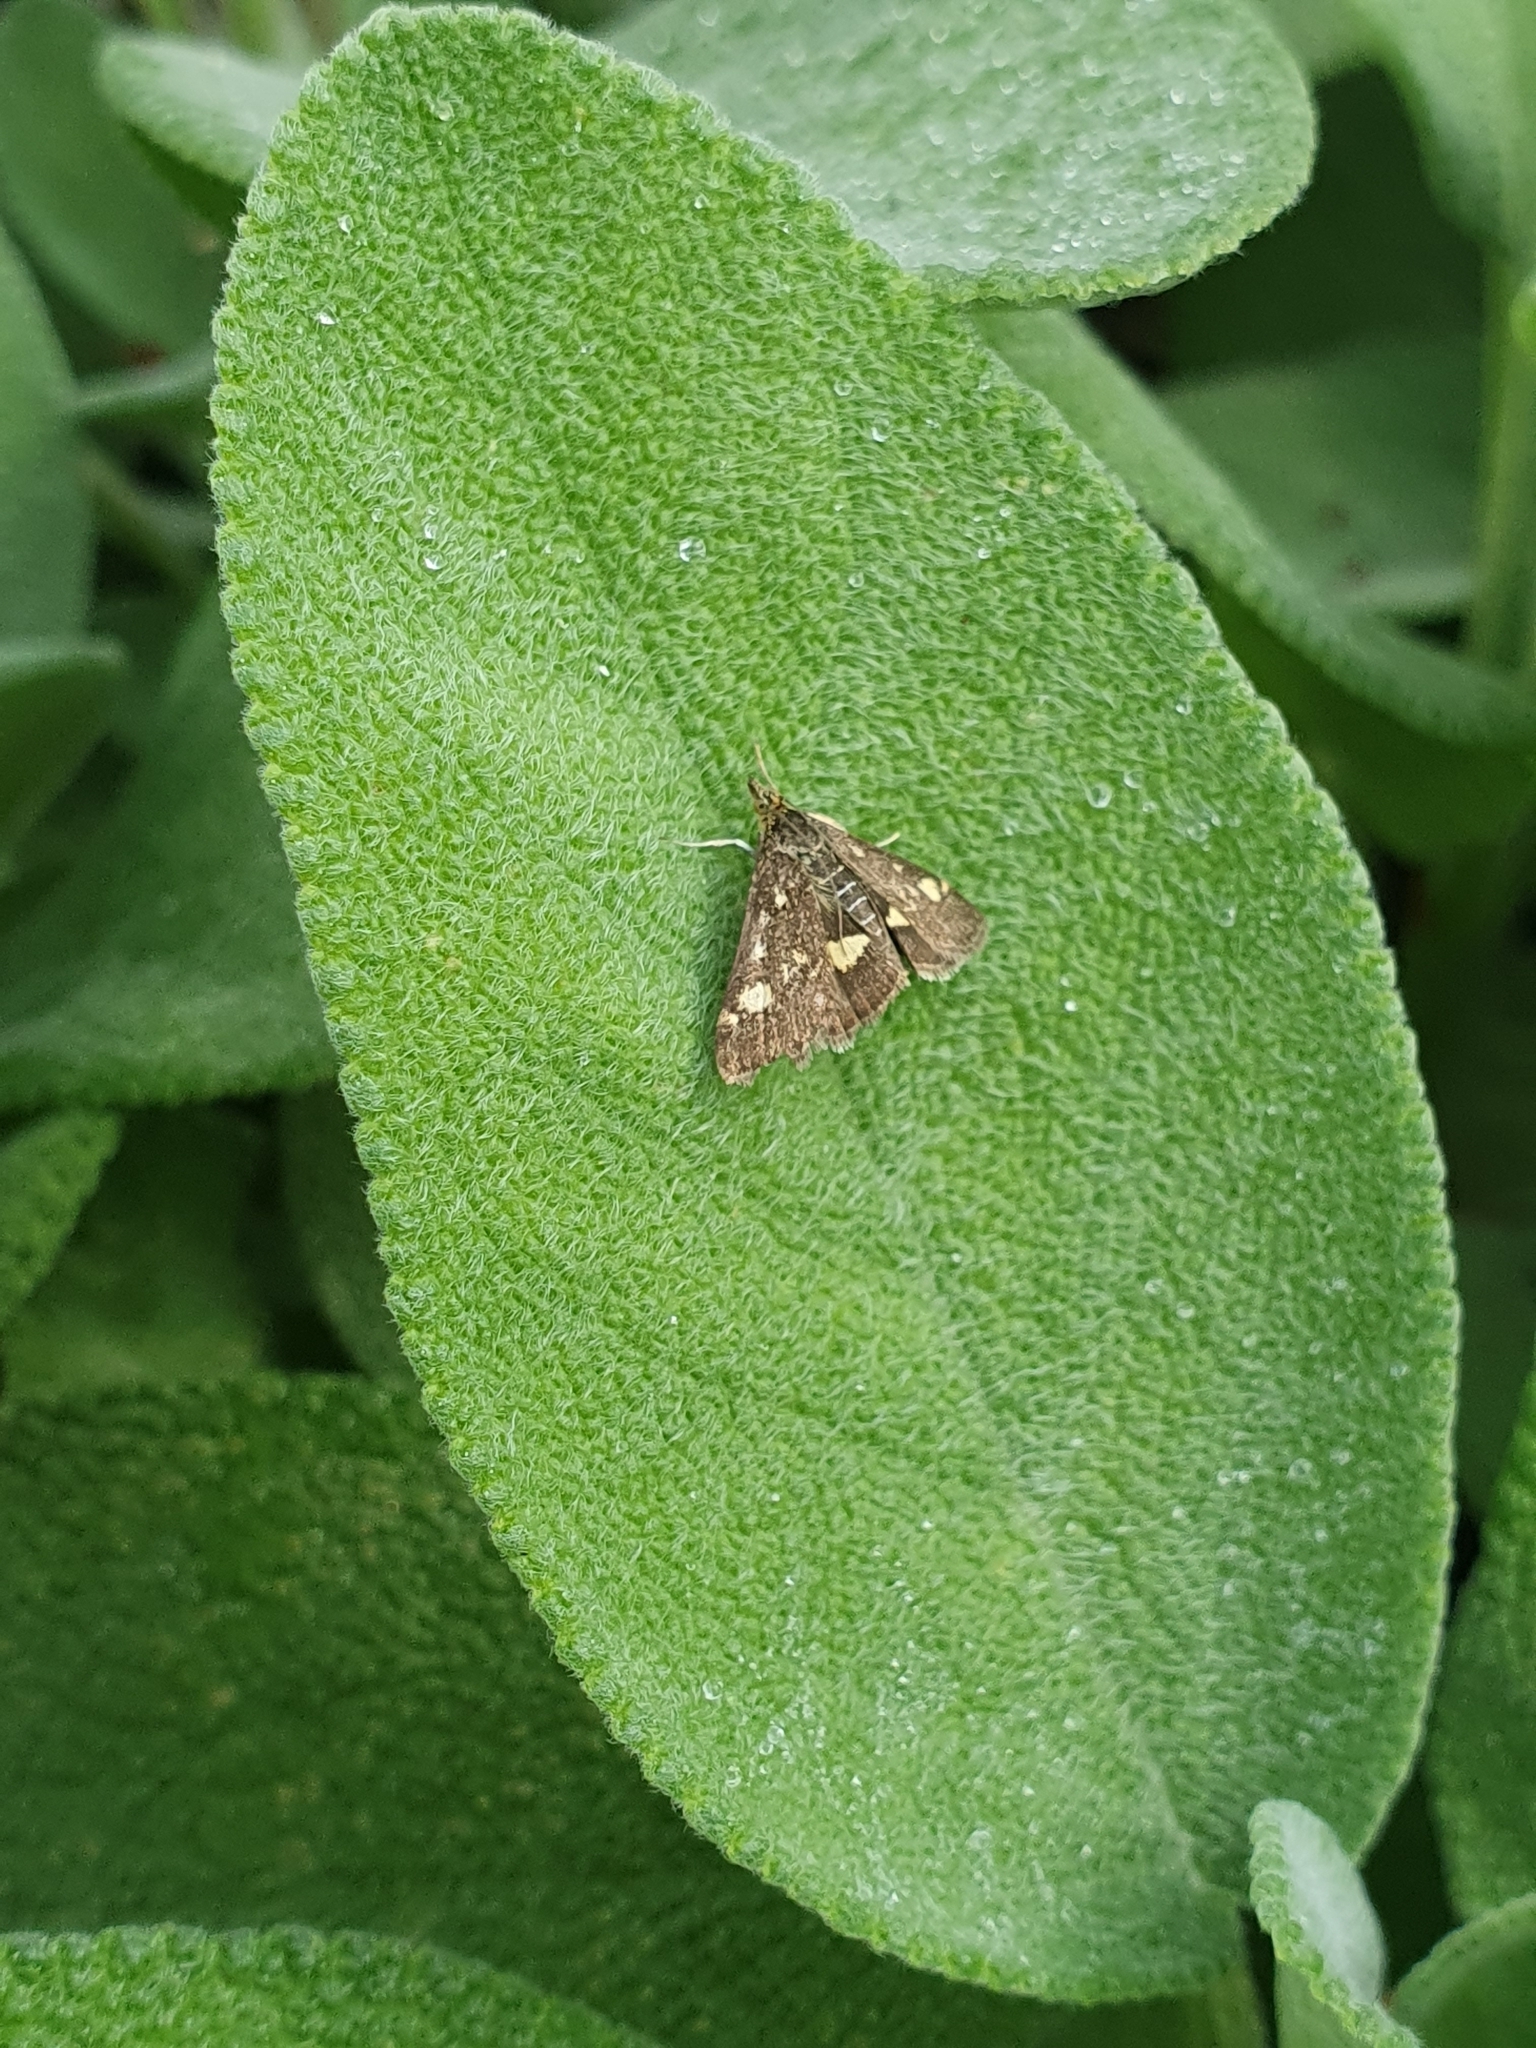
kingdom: Animalia
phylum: Arthropoda
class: Insecta
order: Lepidoptera
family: Crambidae
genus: Pyrausta
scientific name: Pyrausta aurata
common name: Small purple & gold
